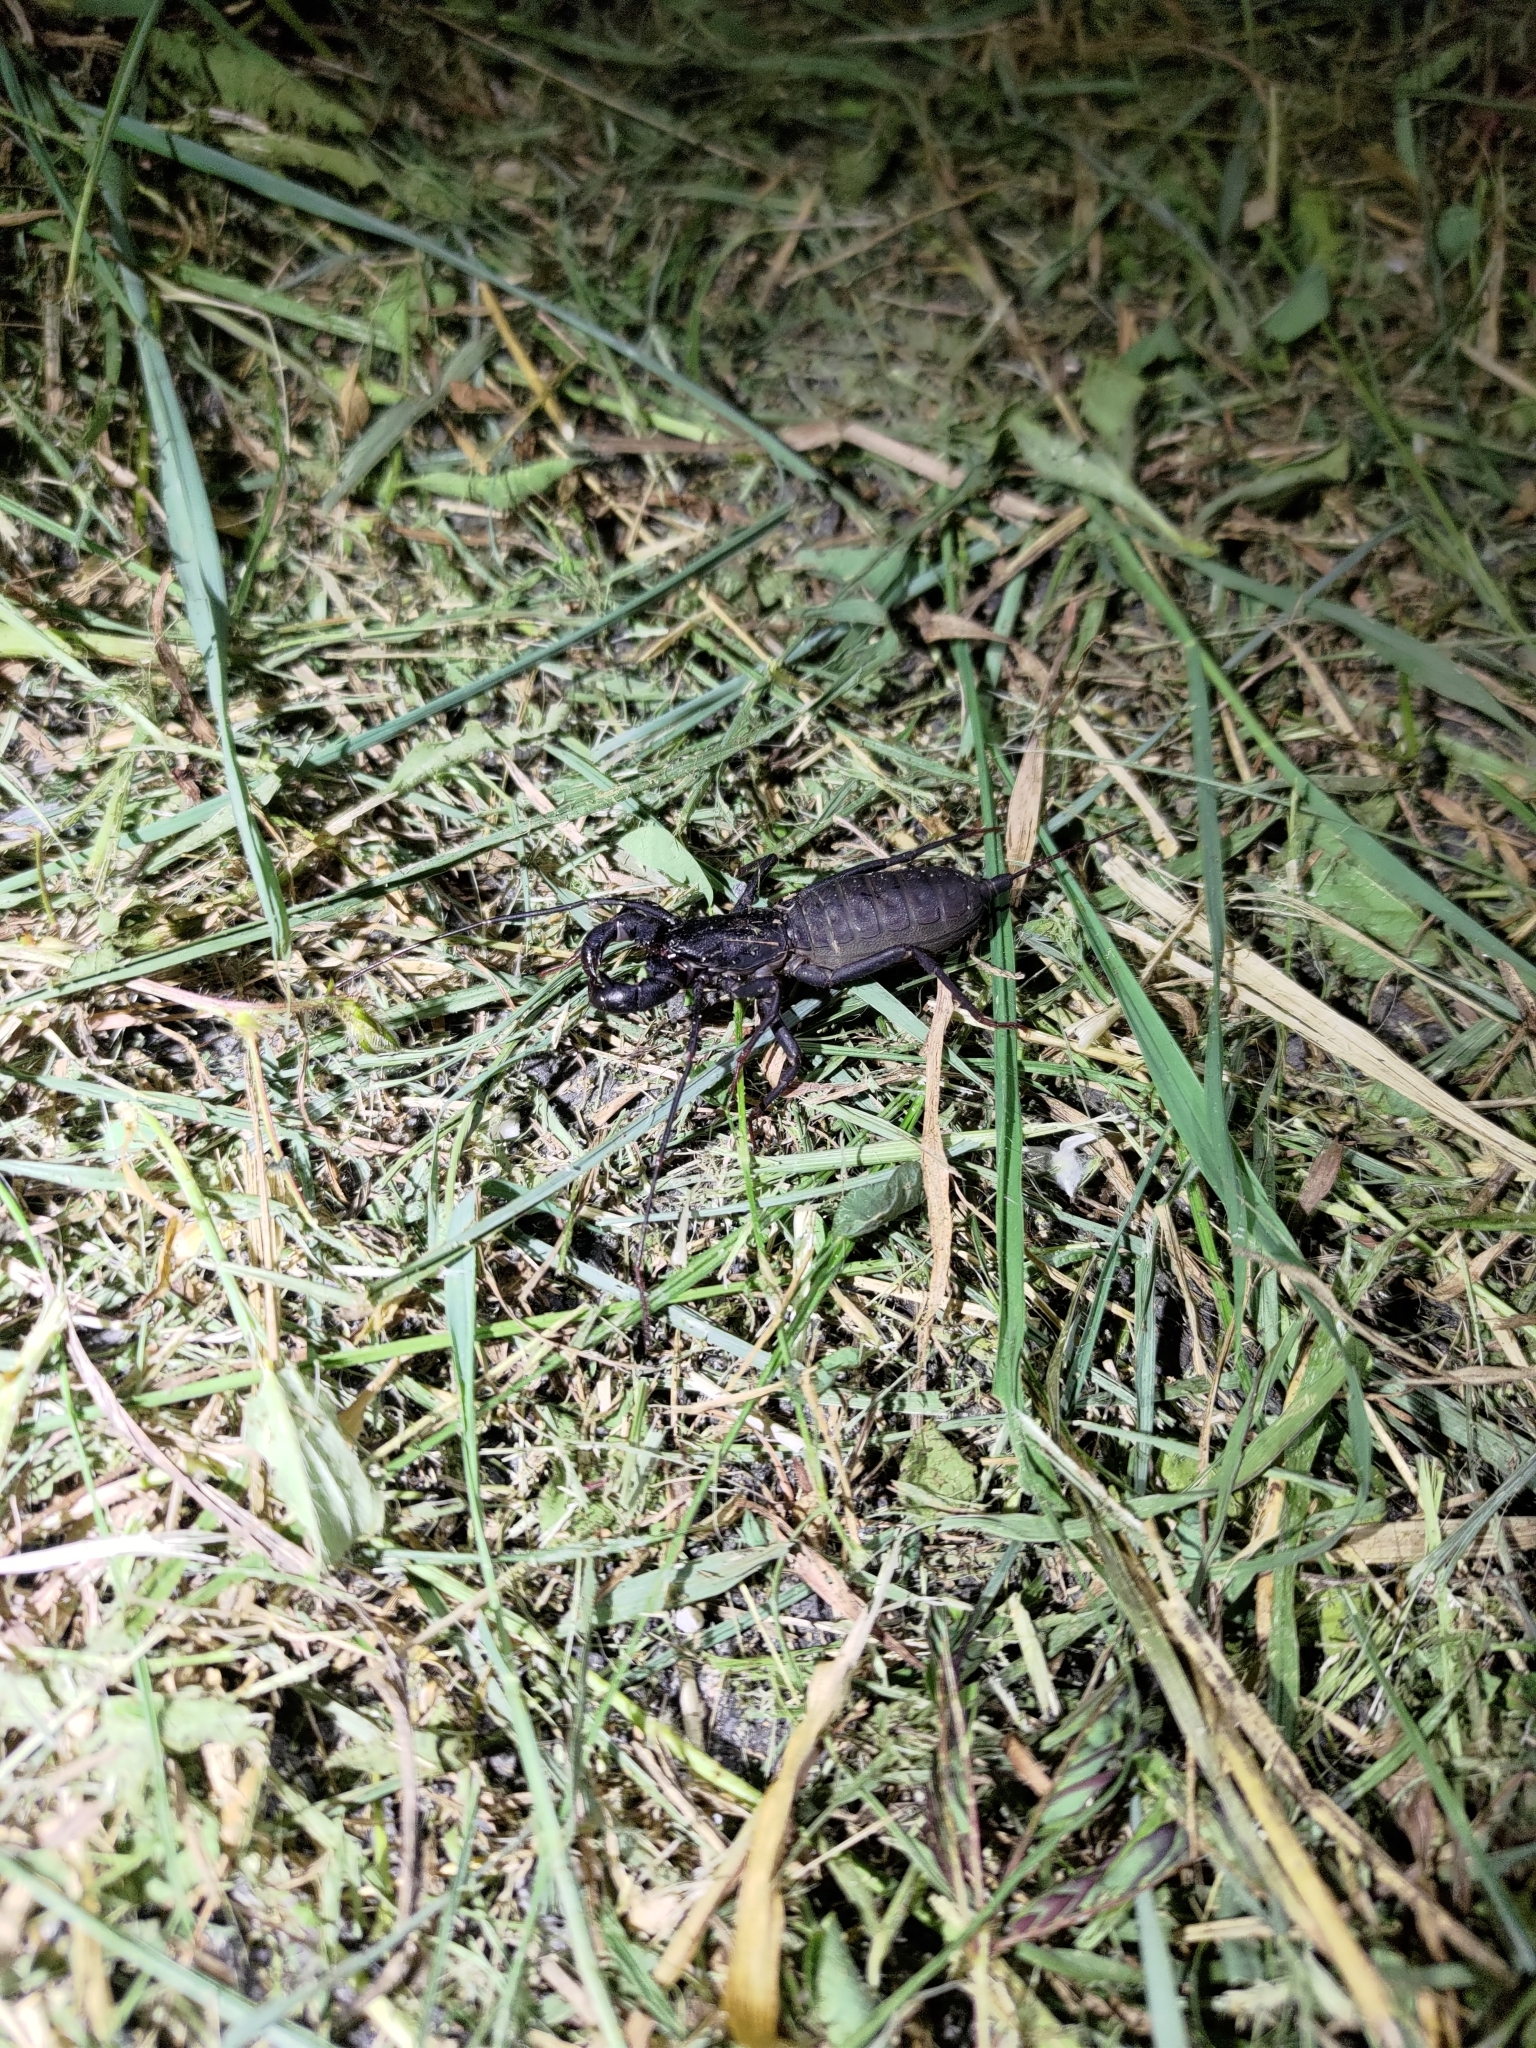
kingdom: Animalia
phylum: Arthropoda
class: Arachnida
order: Uropygi
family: Thelyphonidae
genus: Typopeltis
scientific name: Typopeltis crucifer
